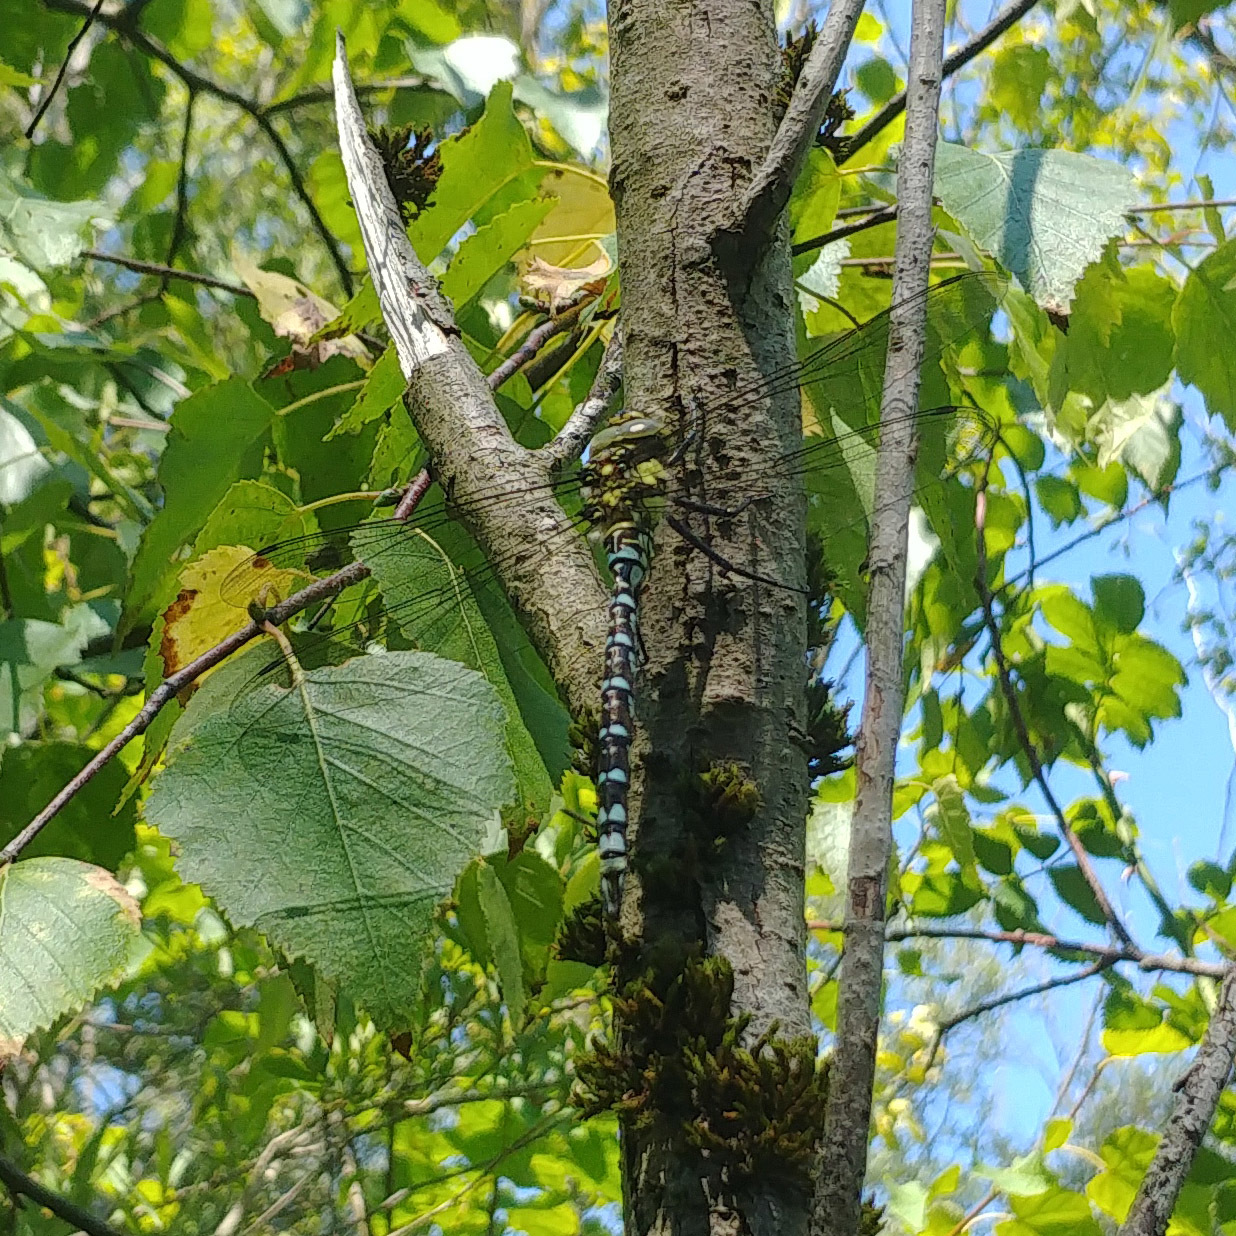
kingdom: Animalia
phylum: Arthropoda
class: Insecta
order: Odonata
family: Aeshnidae
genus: Aeshna
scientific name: Aeshna cyanea
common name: Southern hawker
